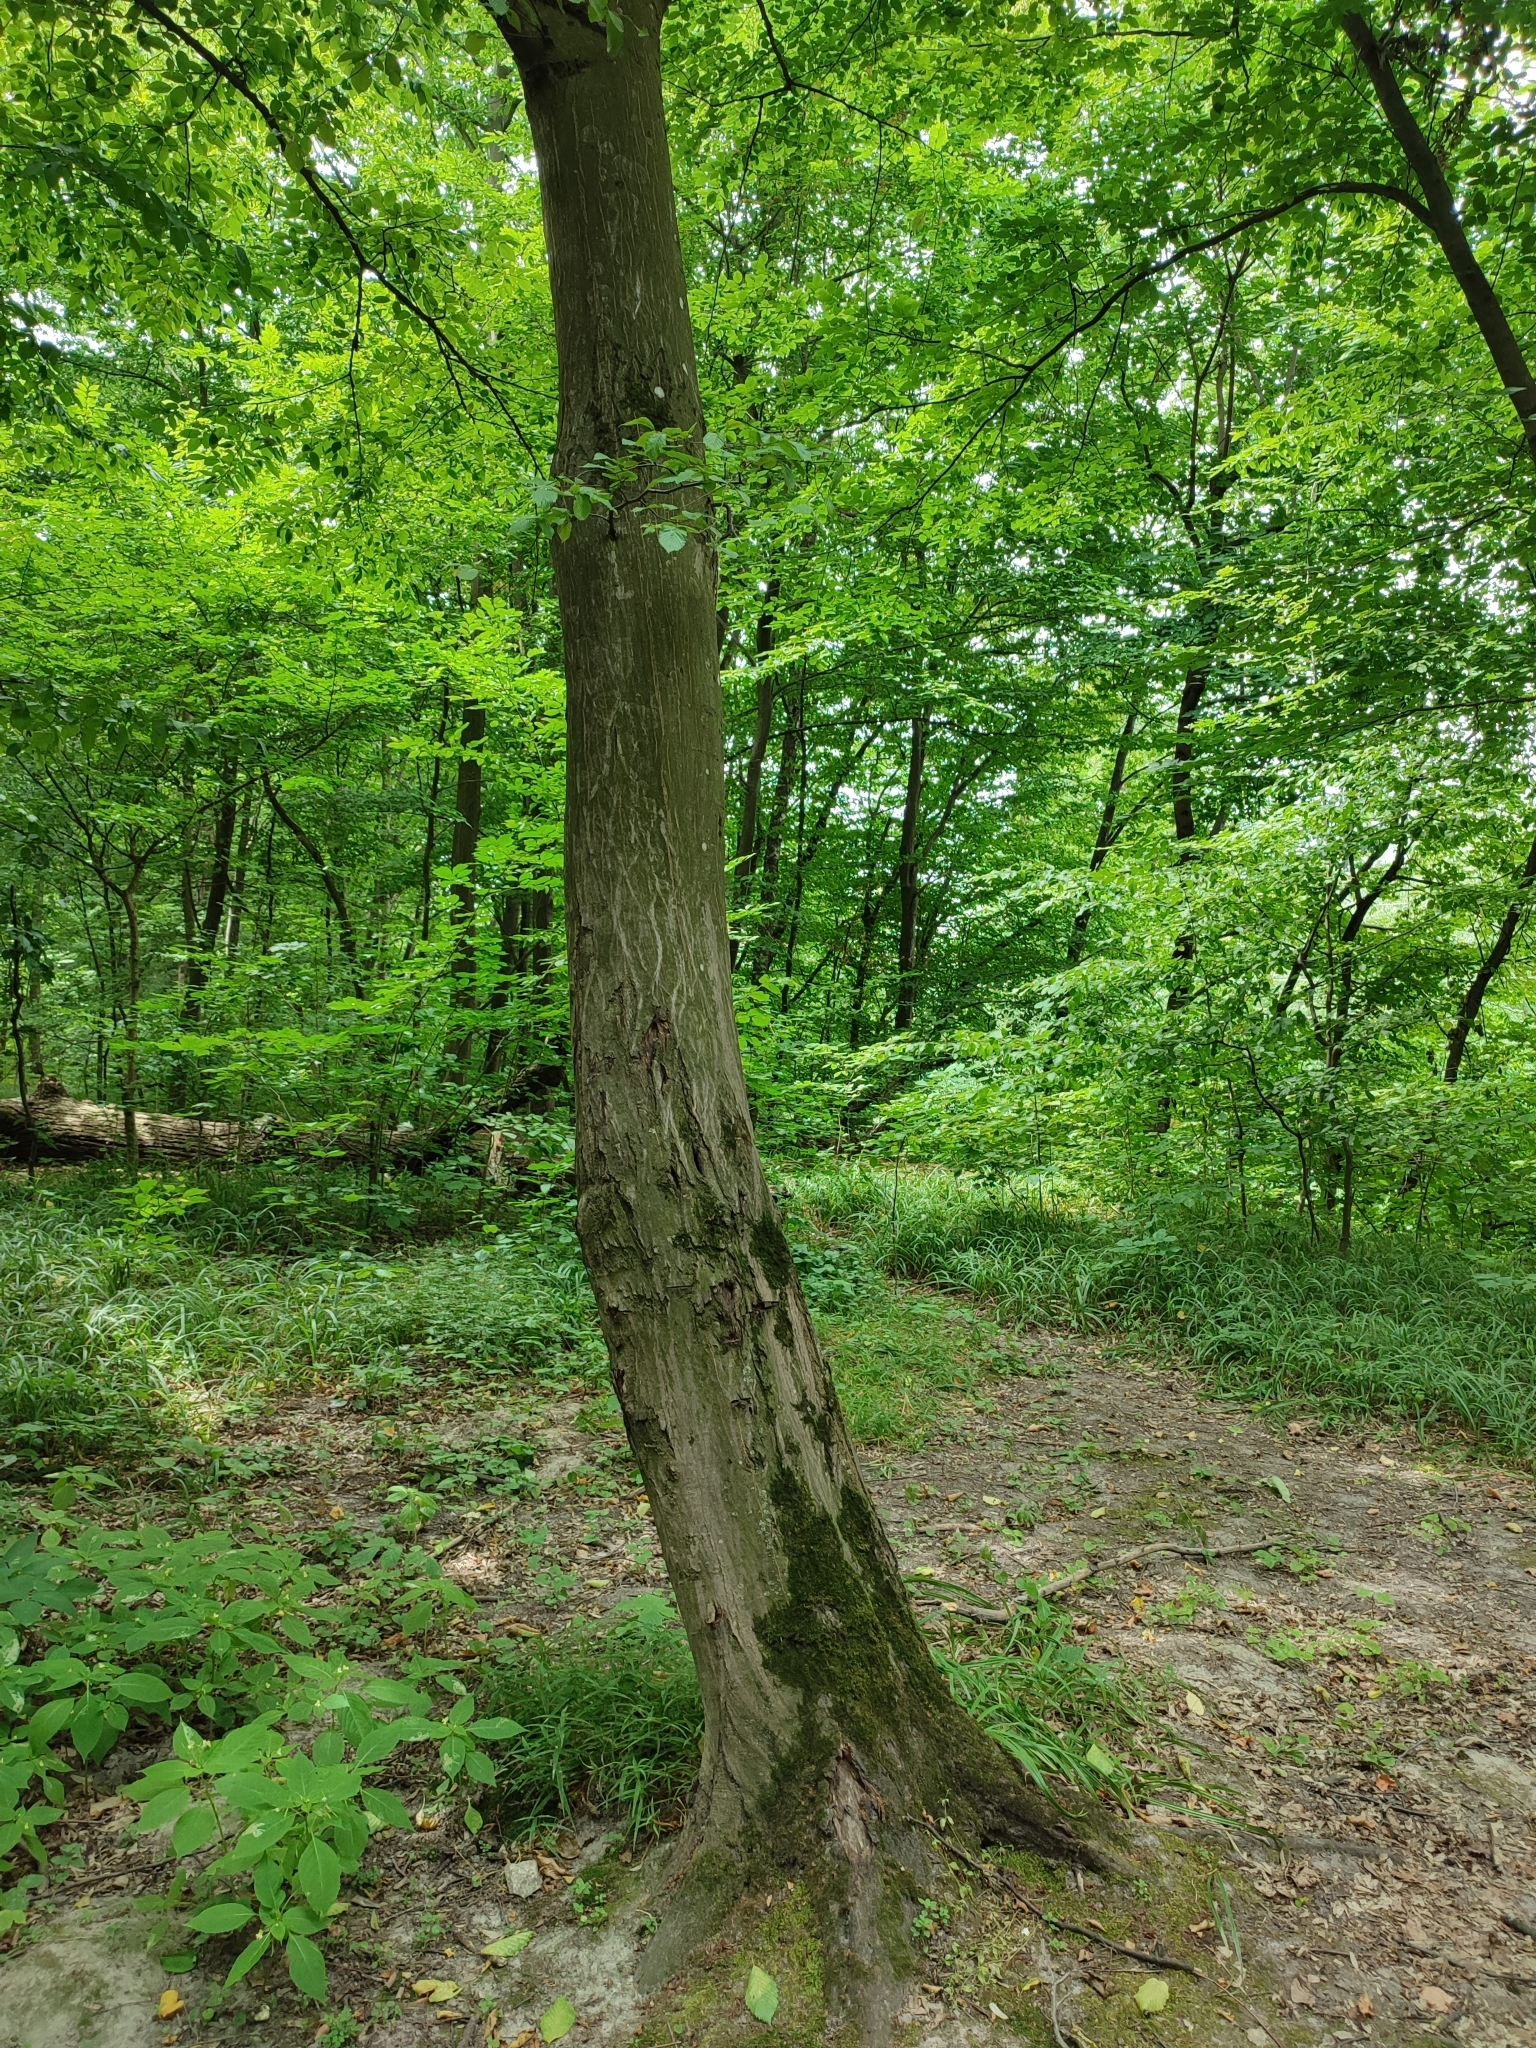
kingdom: Plantae
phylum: Tracheophyta
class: Magnoliopsida
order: Fagales
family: Betulaceae
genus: Carpinus
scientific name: Carpinus betulus
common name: Hornbeam
